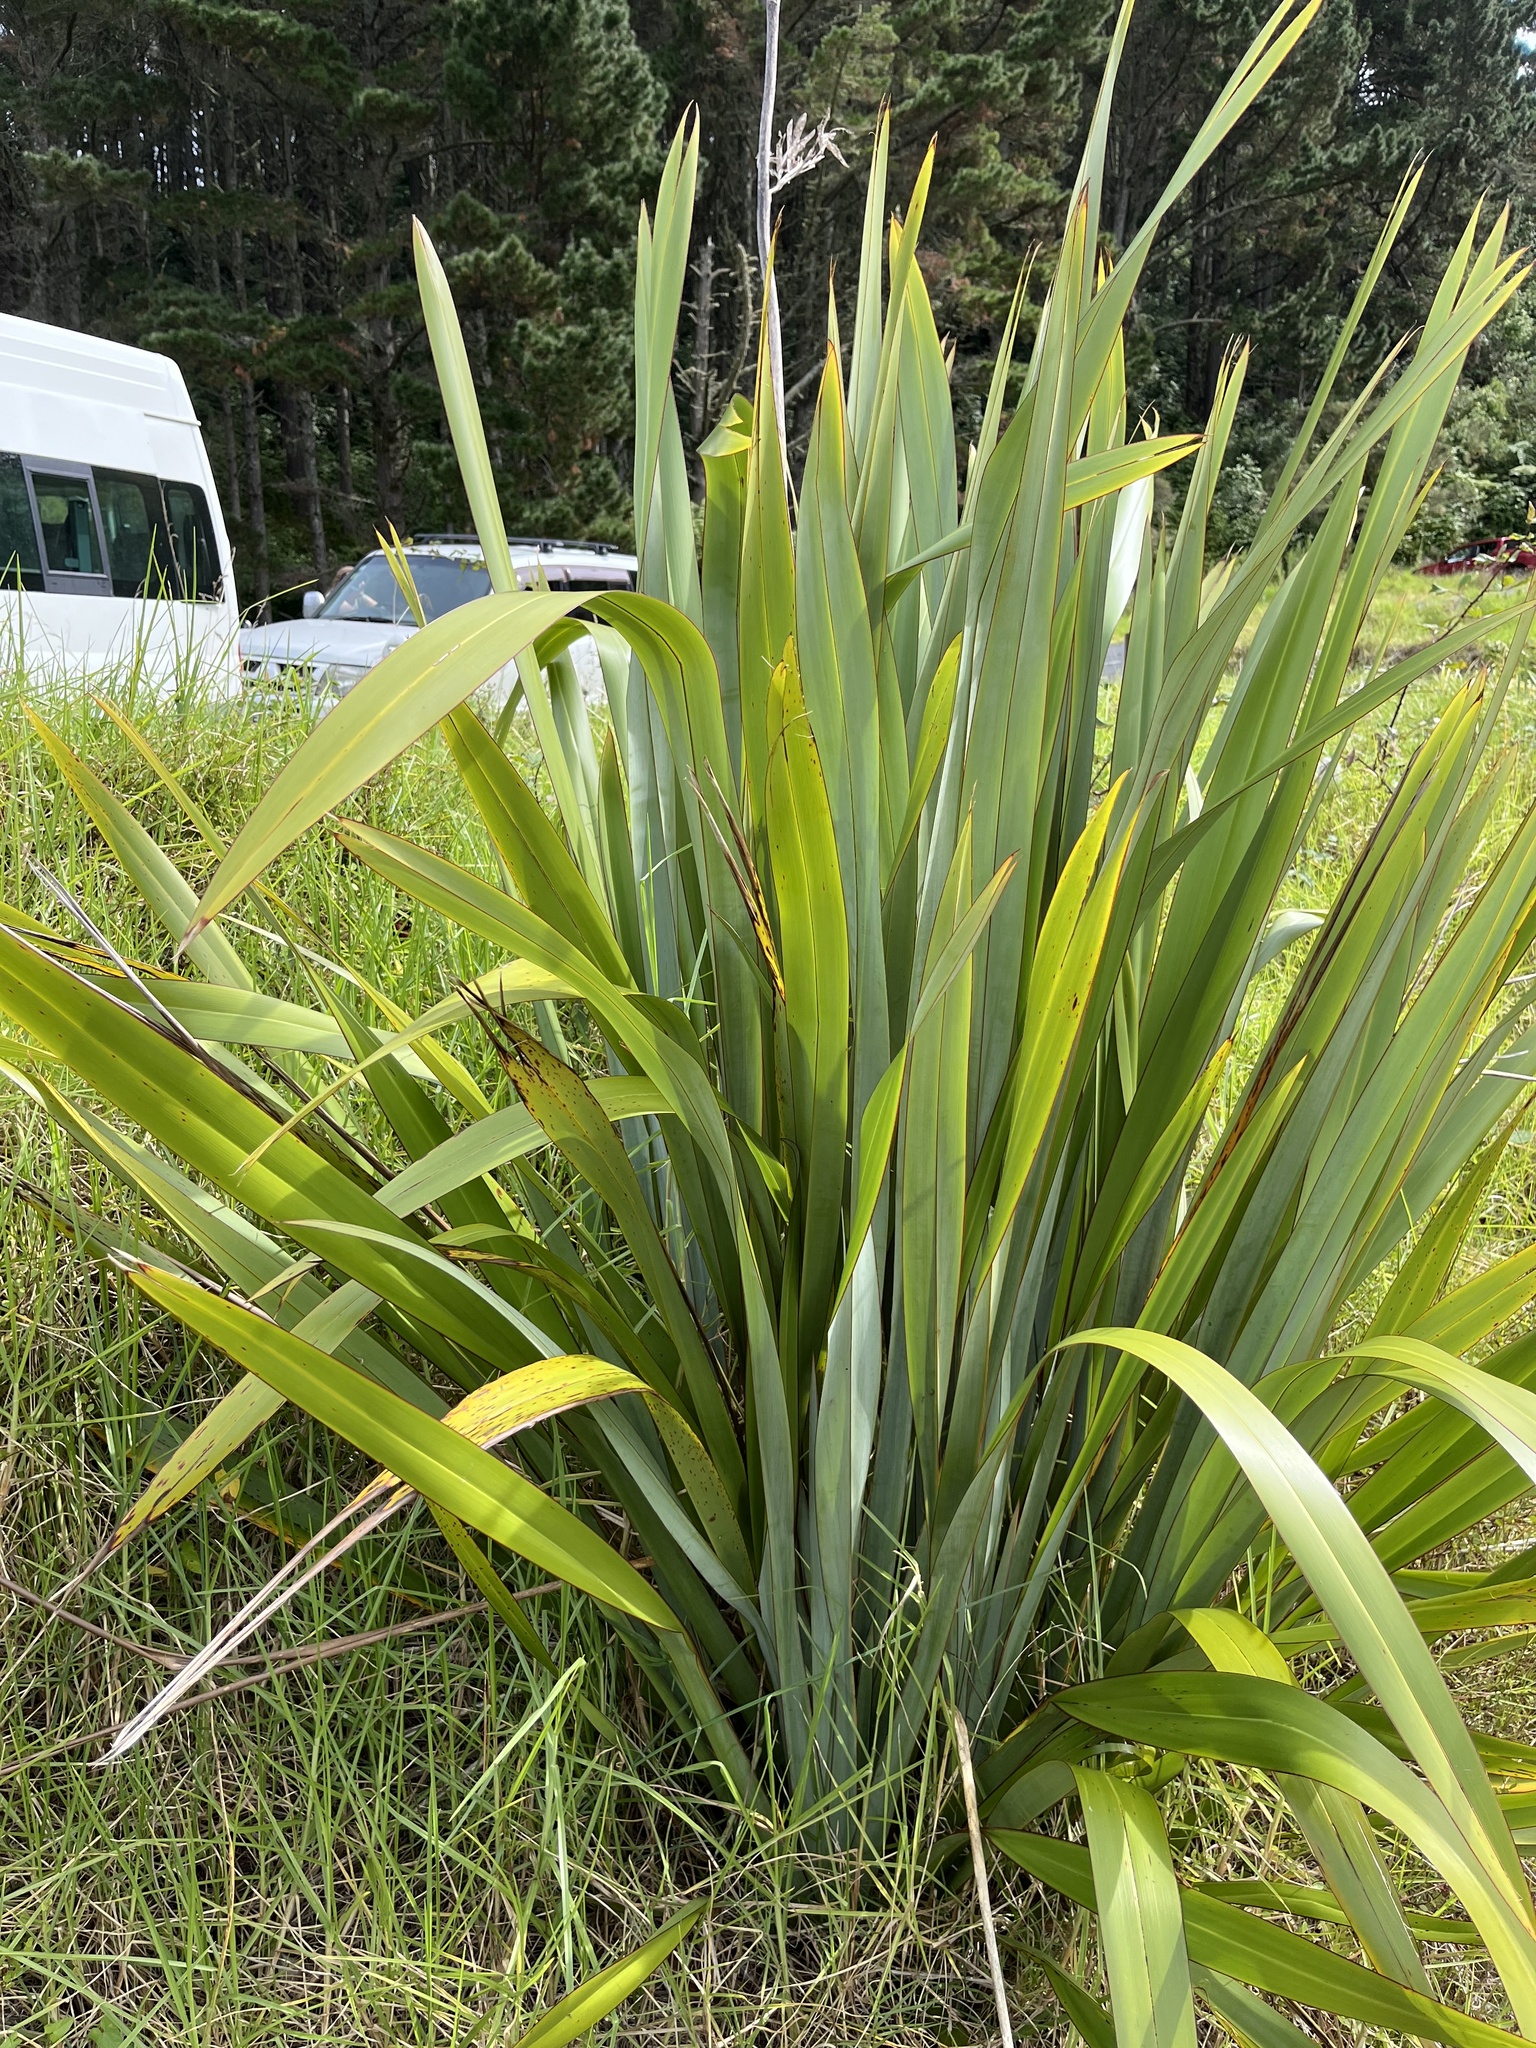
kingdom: Plantae
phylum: Tracheophyta
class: Liliopsida
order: Asparagales
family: Asphodelaceae
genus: Phormium
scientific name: Phormium tenax
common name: New zealand flax
